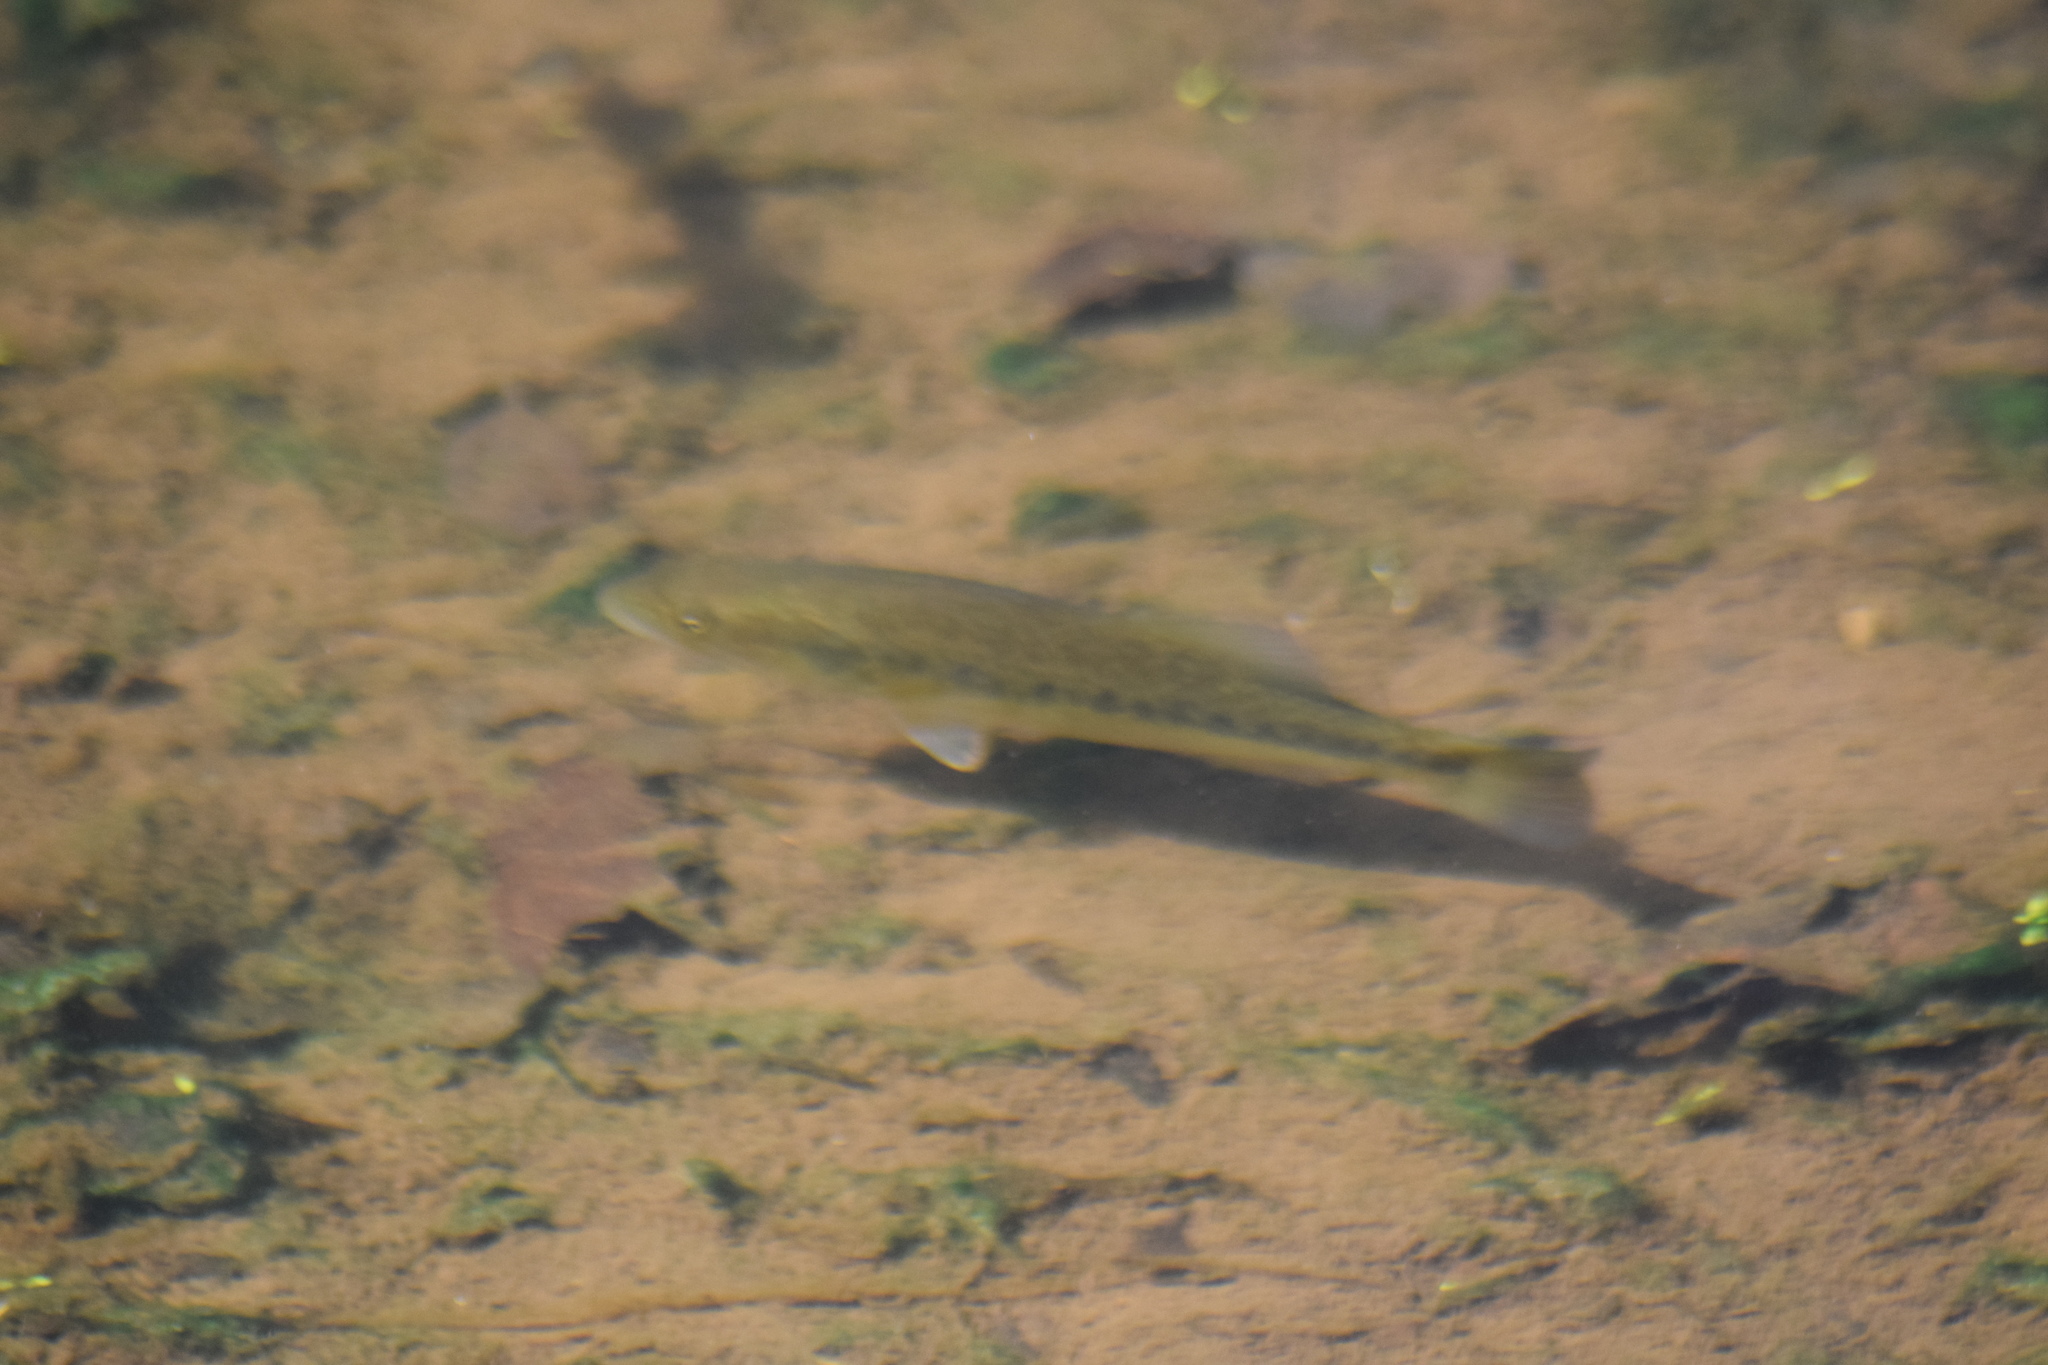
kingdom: Animalia
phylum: Chordata
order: Perciformes
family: Centrarchidae
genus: Micropterus
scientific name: Micropterus
